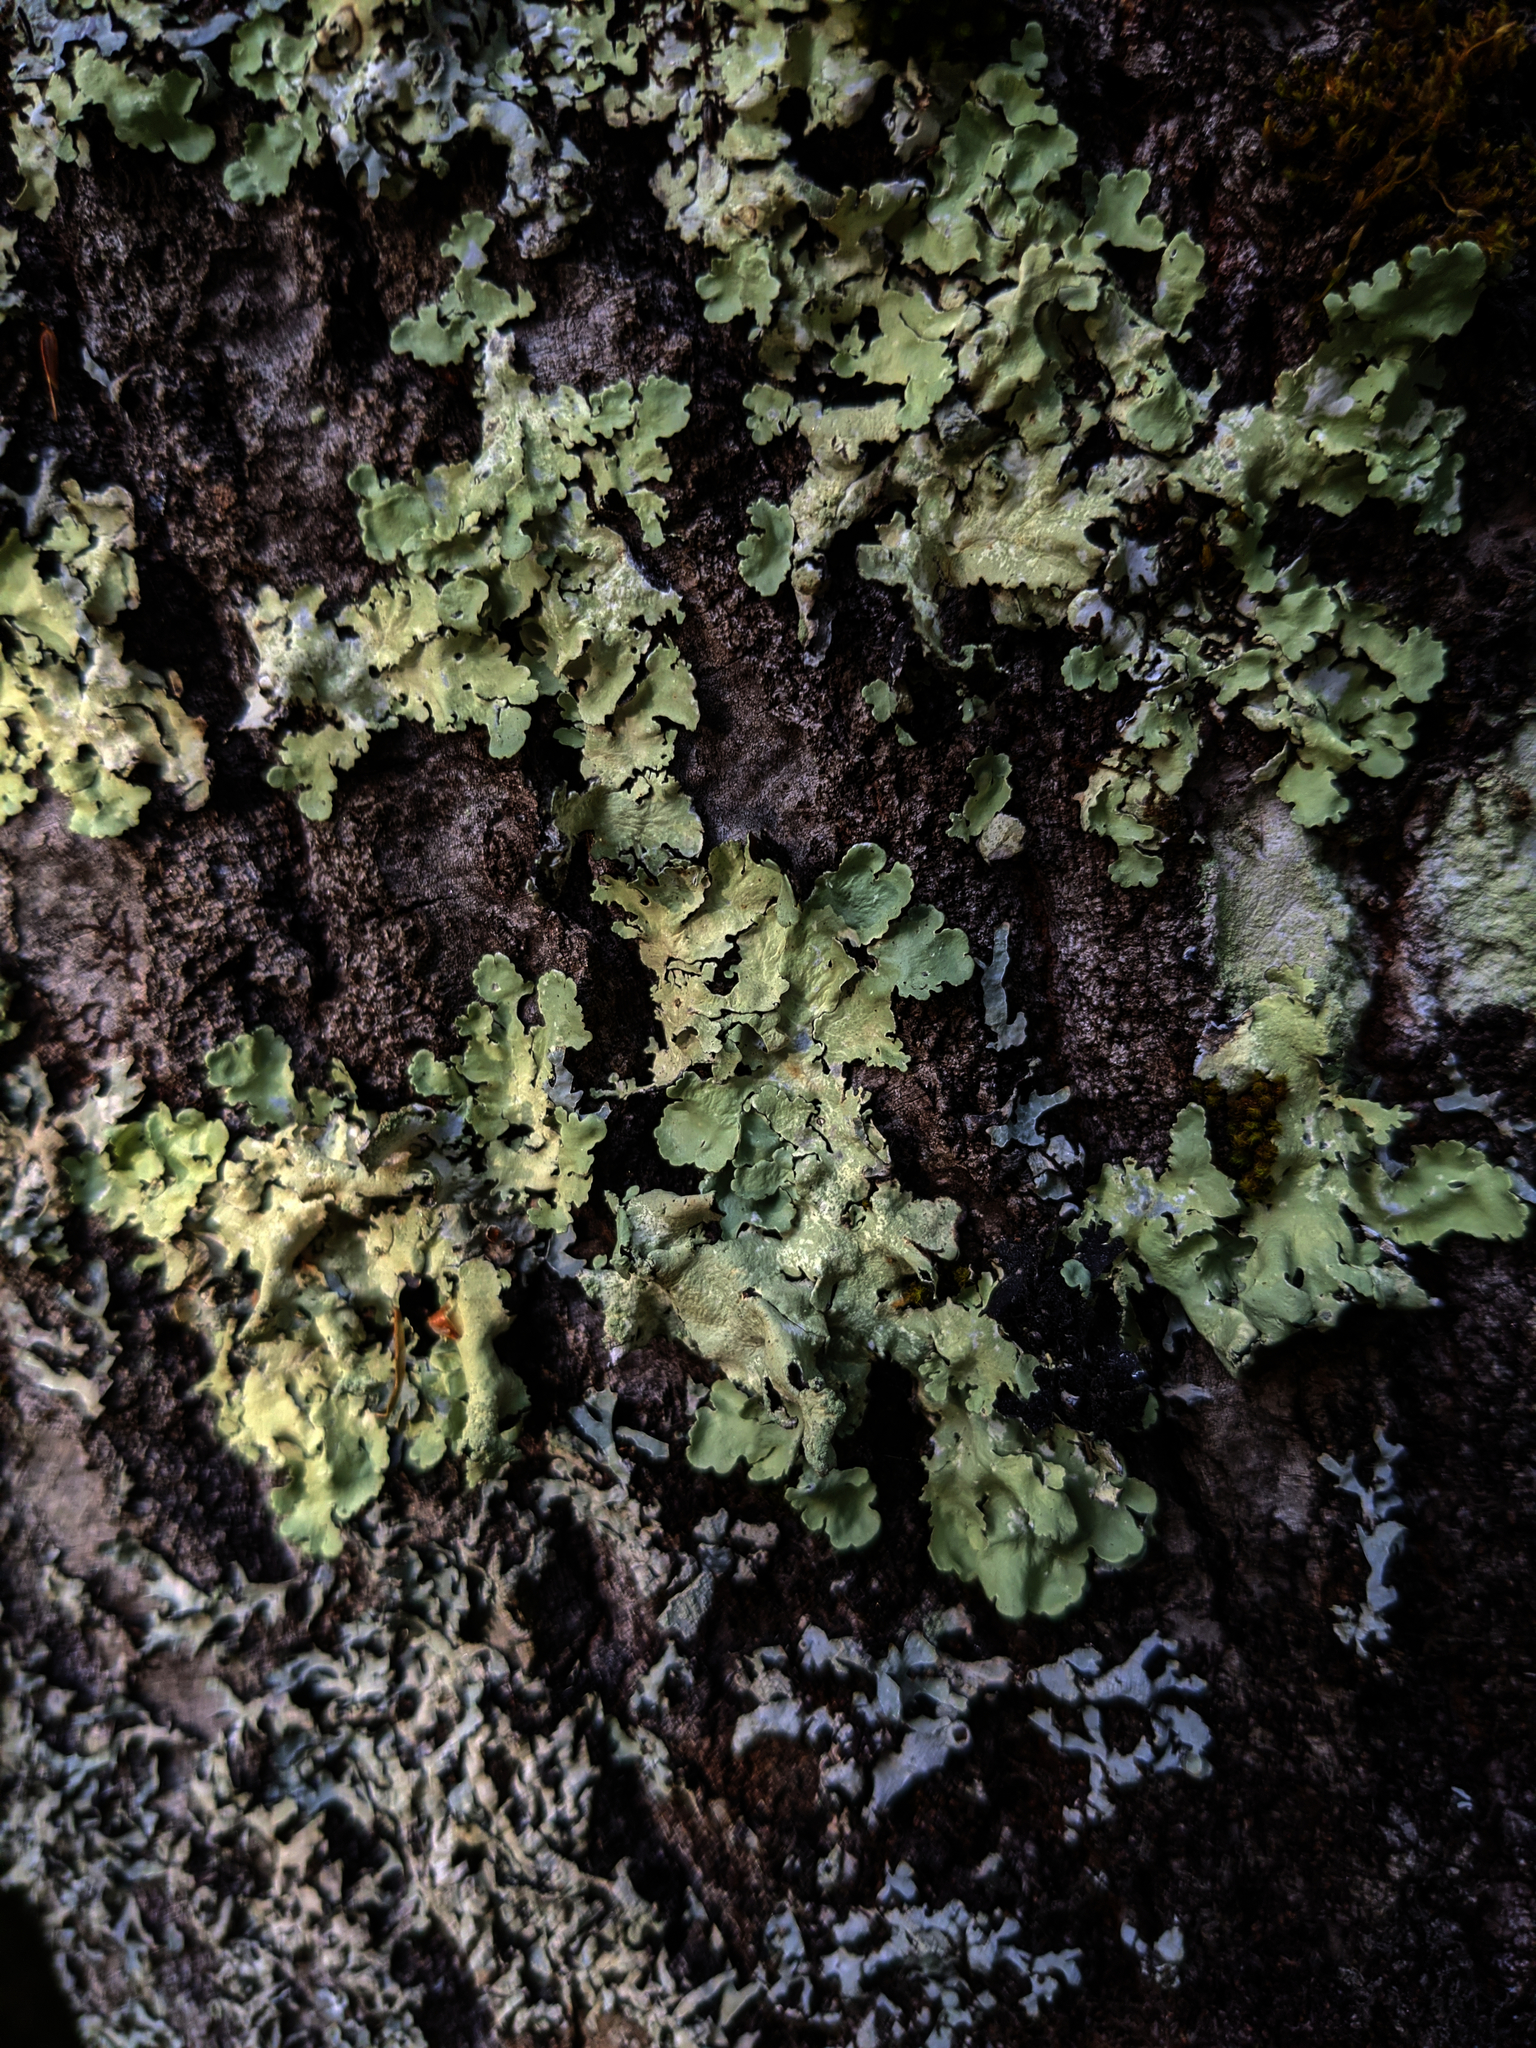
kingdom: Fungi
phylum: Ascomycota
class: Lecanoromycetes
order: Lecanorales
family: Parmeliaceae
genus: Flavoparmelia
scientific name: Flavoparmelia caperata
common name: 40-mile per hour lichen
